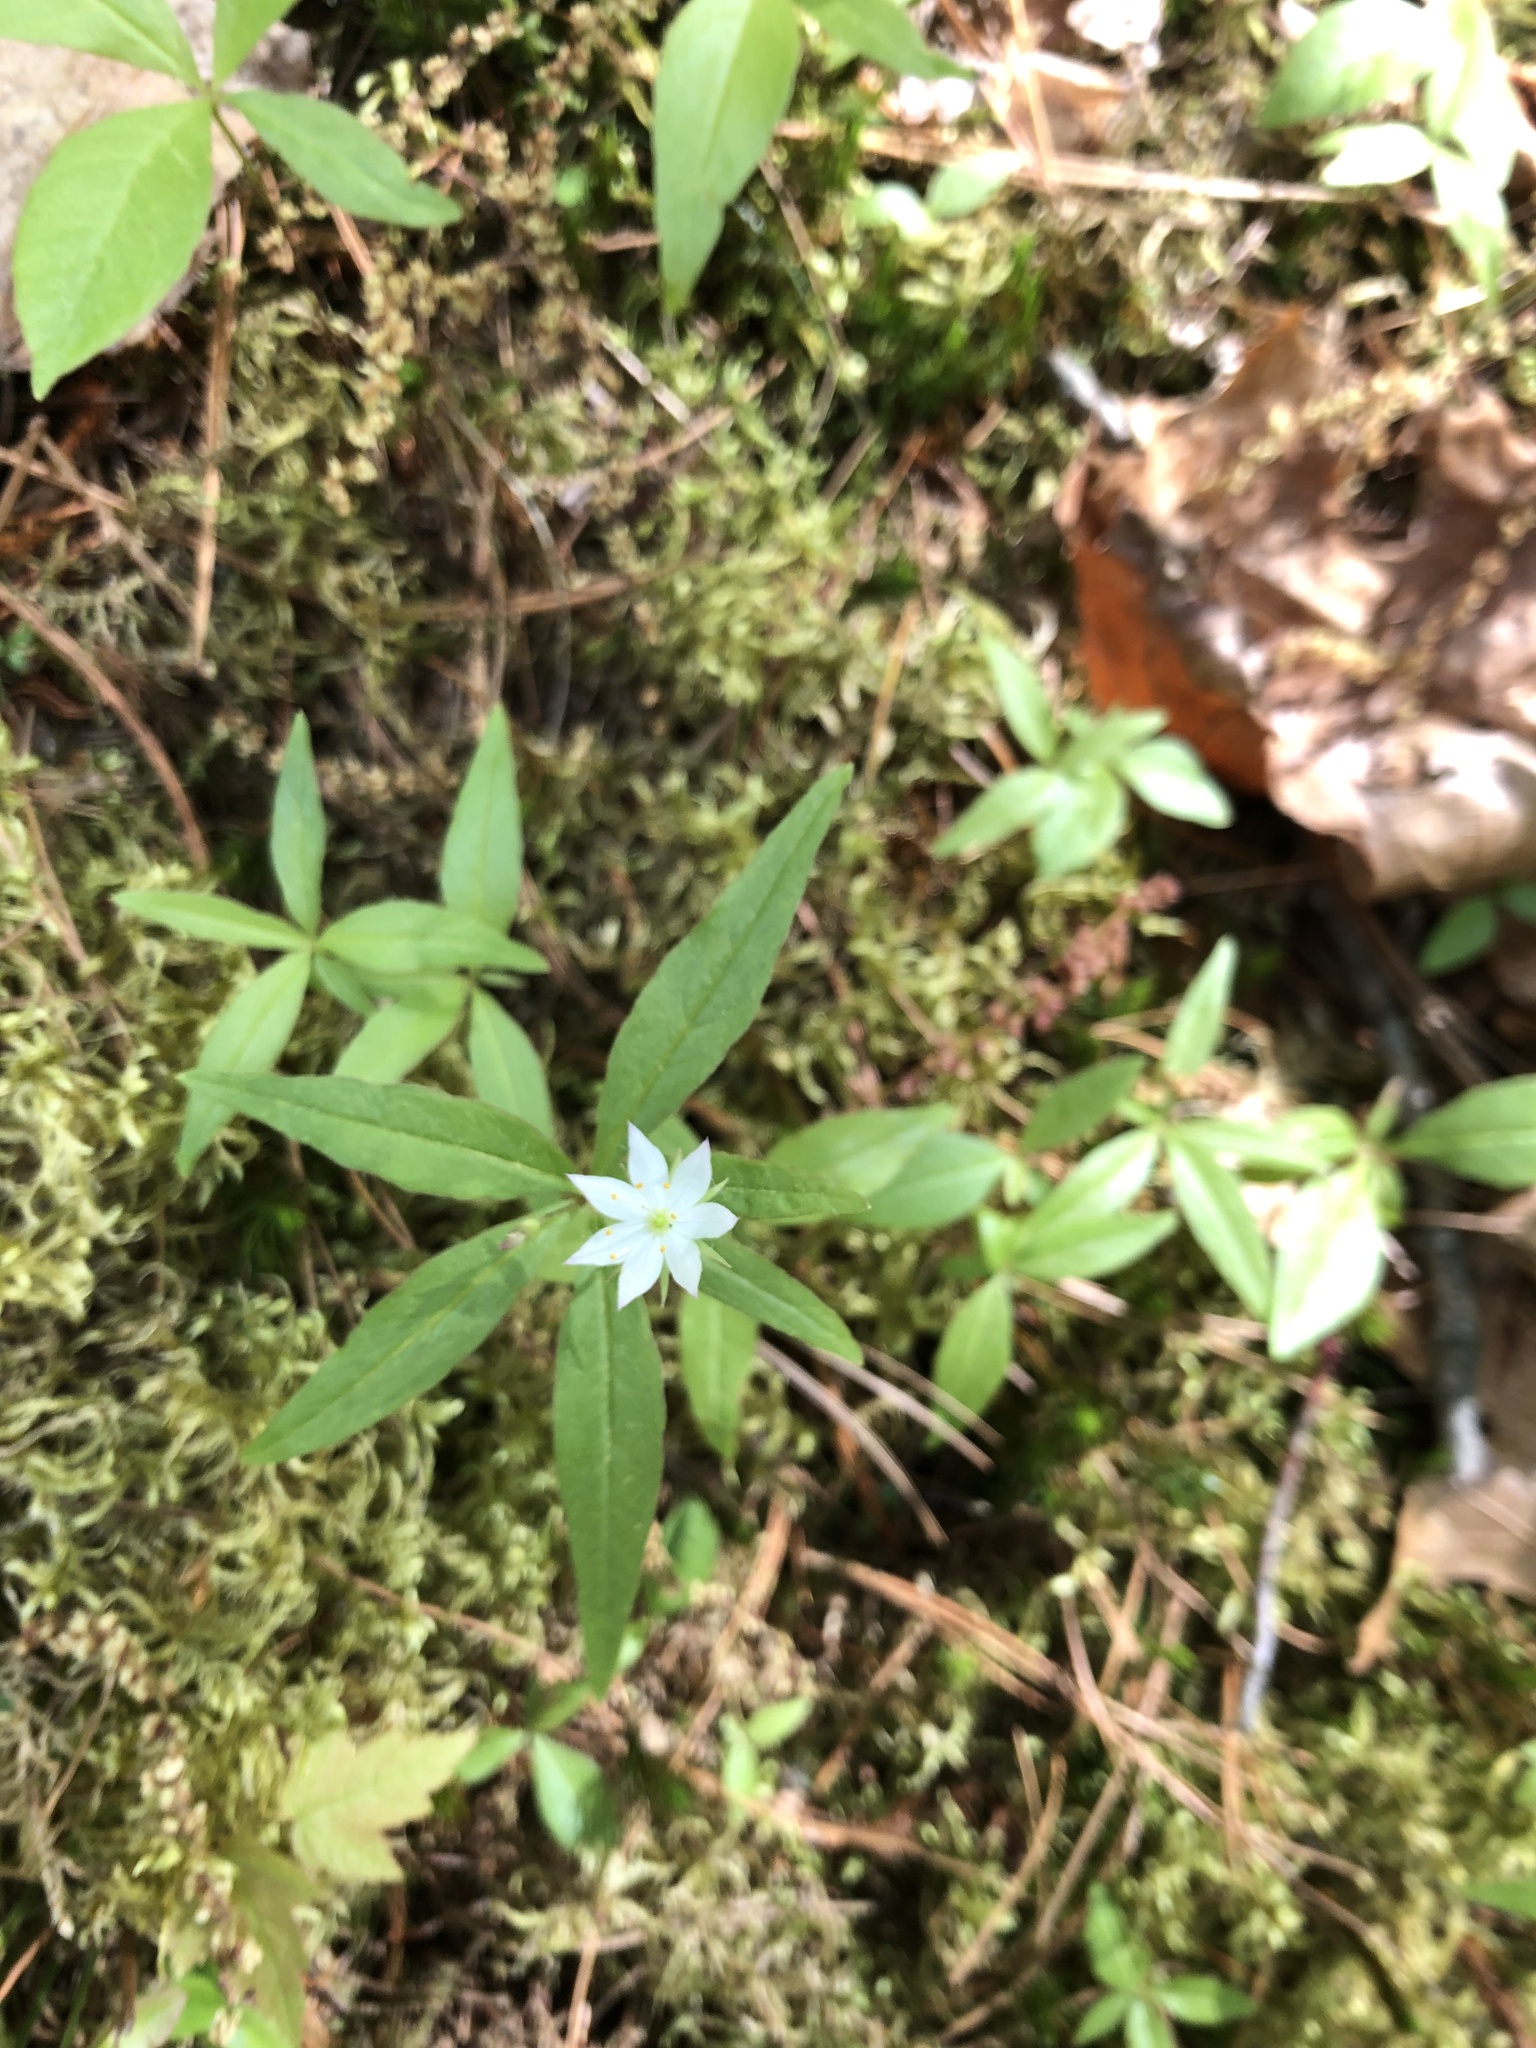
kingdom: Plantae
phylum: Tracheophyta
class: Magnoliopsida
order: Ericales
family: Primulaceae
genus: Lysimachia
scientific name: Lysimachia borealis
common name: American starflower
